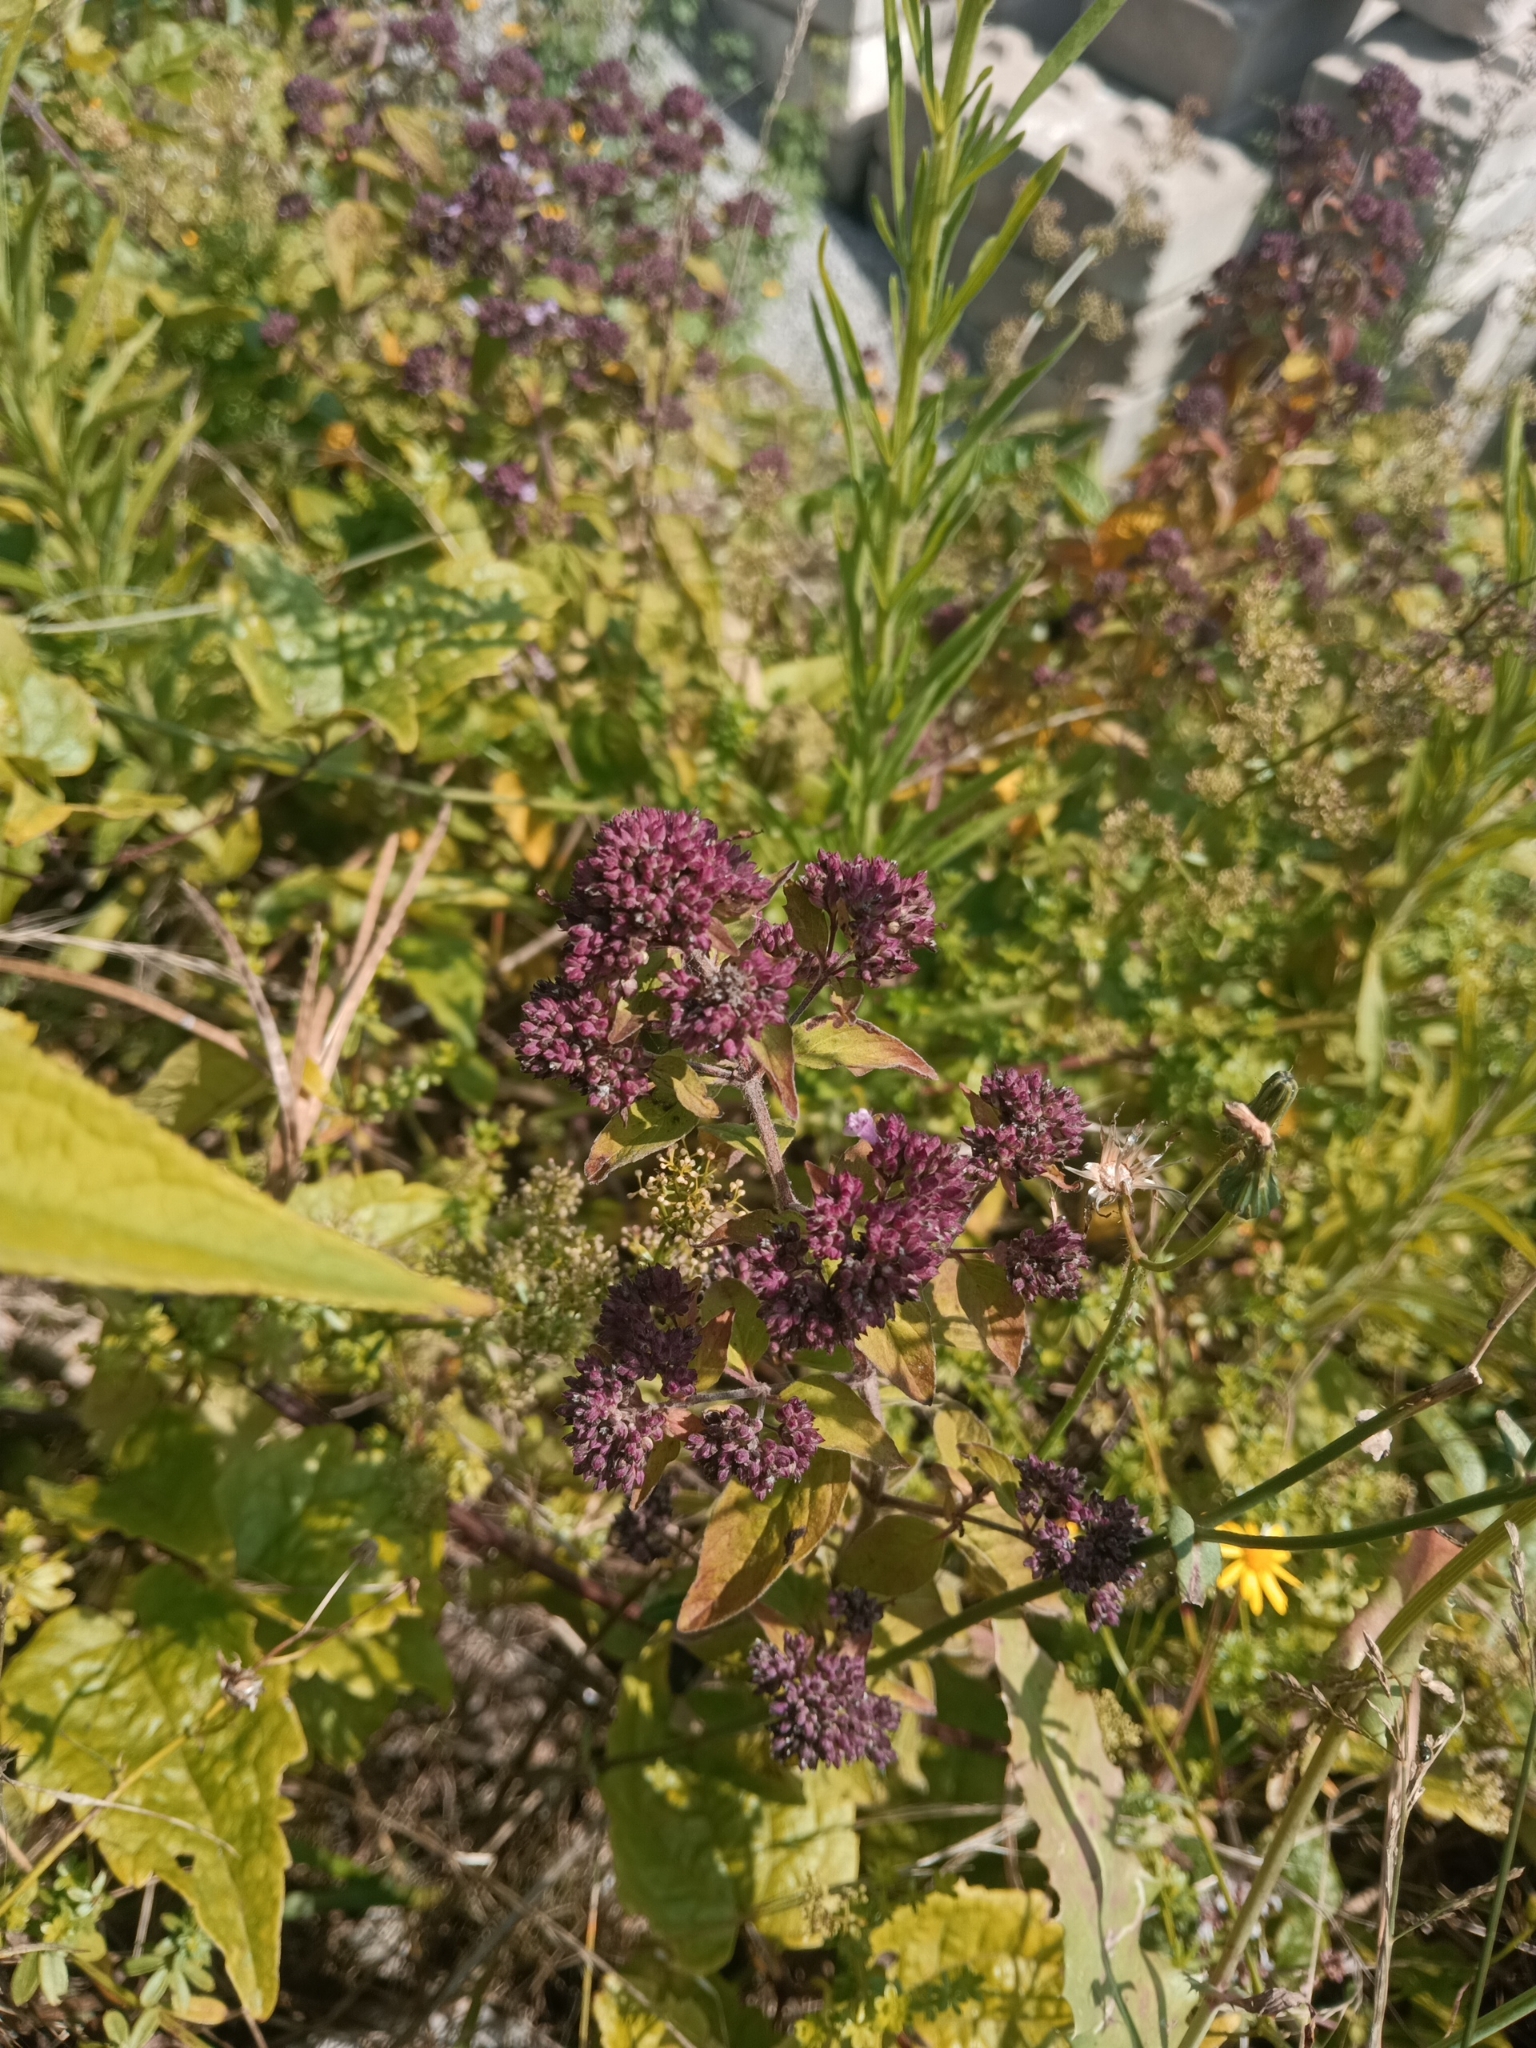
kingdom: Plantae
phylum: Tracheophyta
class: Magnoliopsida
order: Lamiales
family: Lamiaceae
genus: Origanum
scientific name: Origanum vulgare
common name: Wild marjoram
